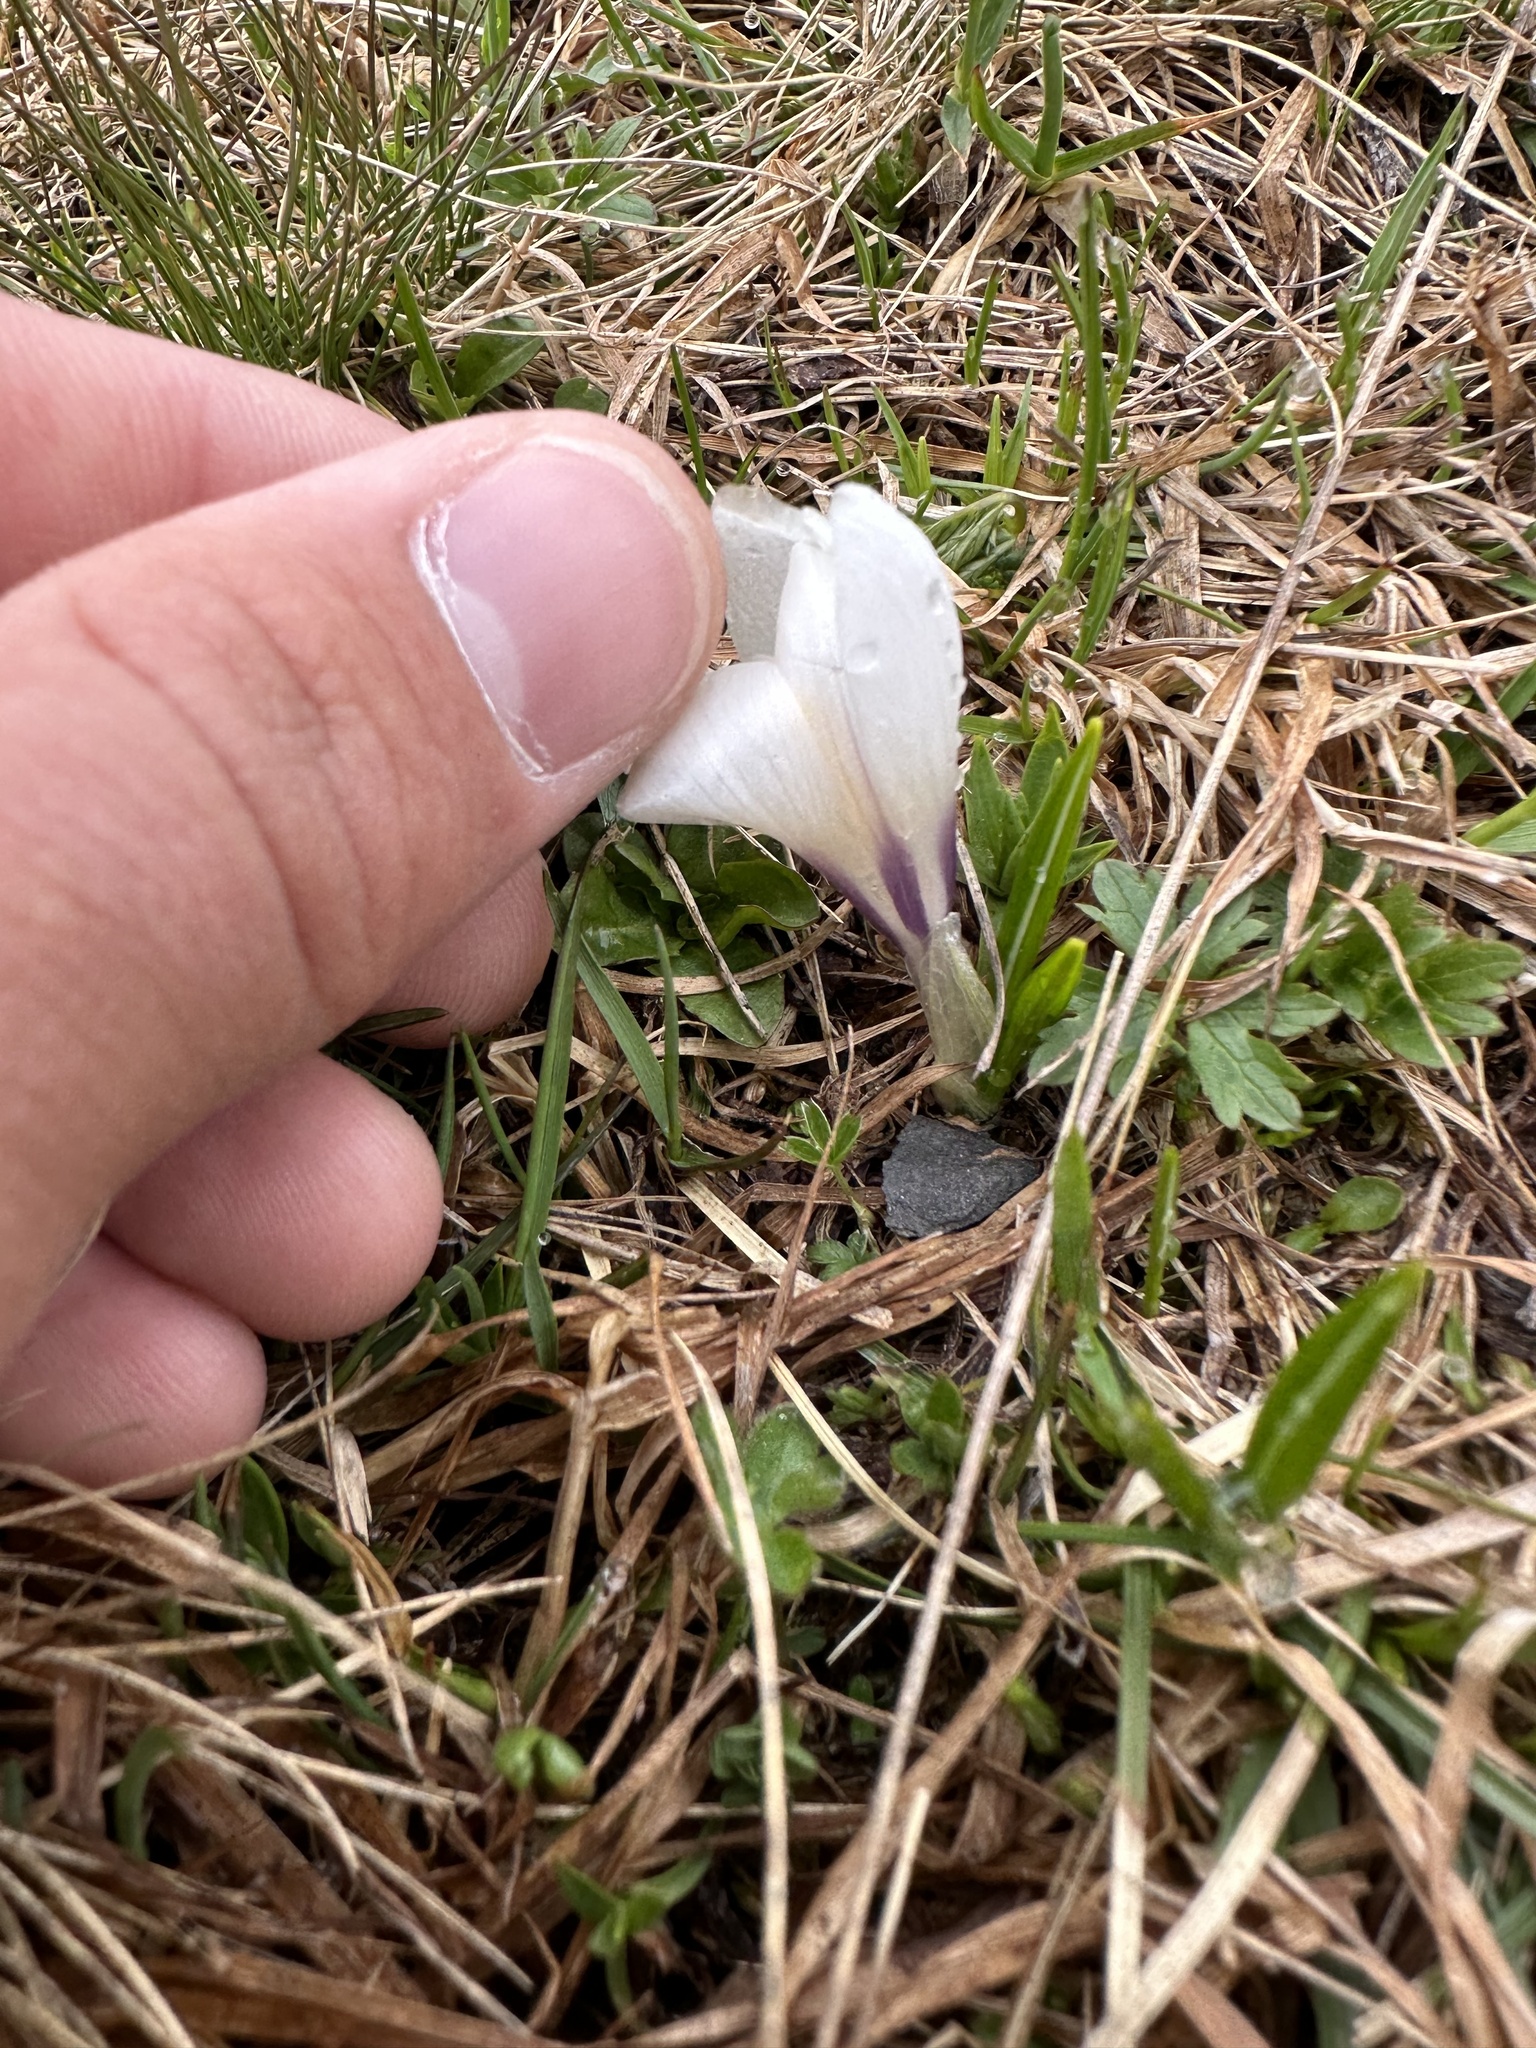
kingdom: Plantae
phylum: Tracheophyta
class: Liliopsida
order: Asparagales
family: Iridaceae
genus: Crocus
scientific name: Crocus vernus
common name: Spring crocus
